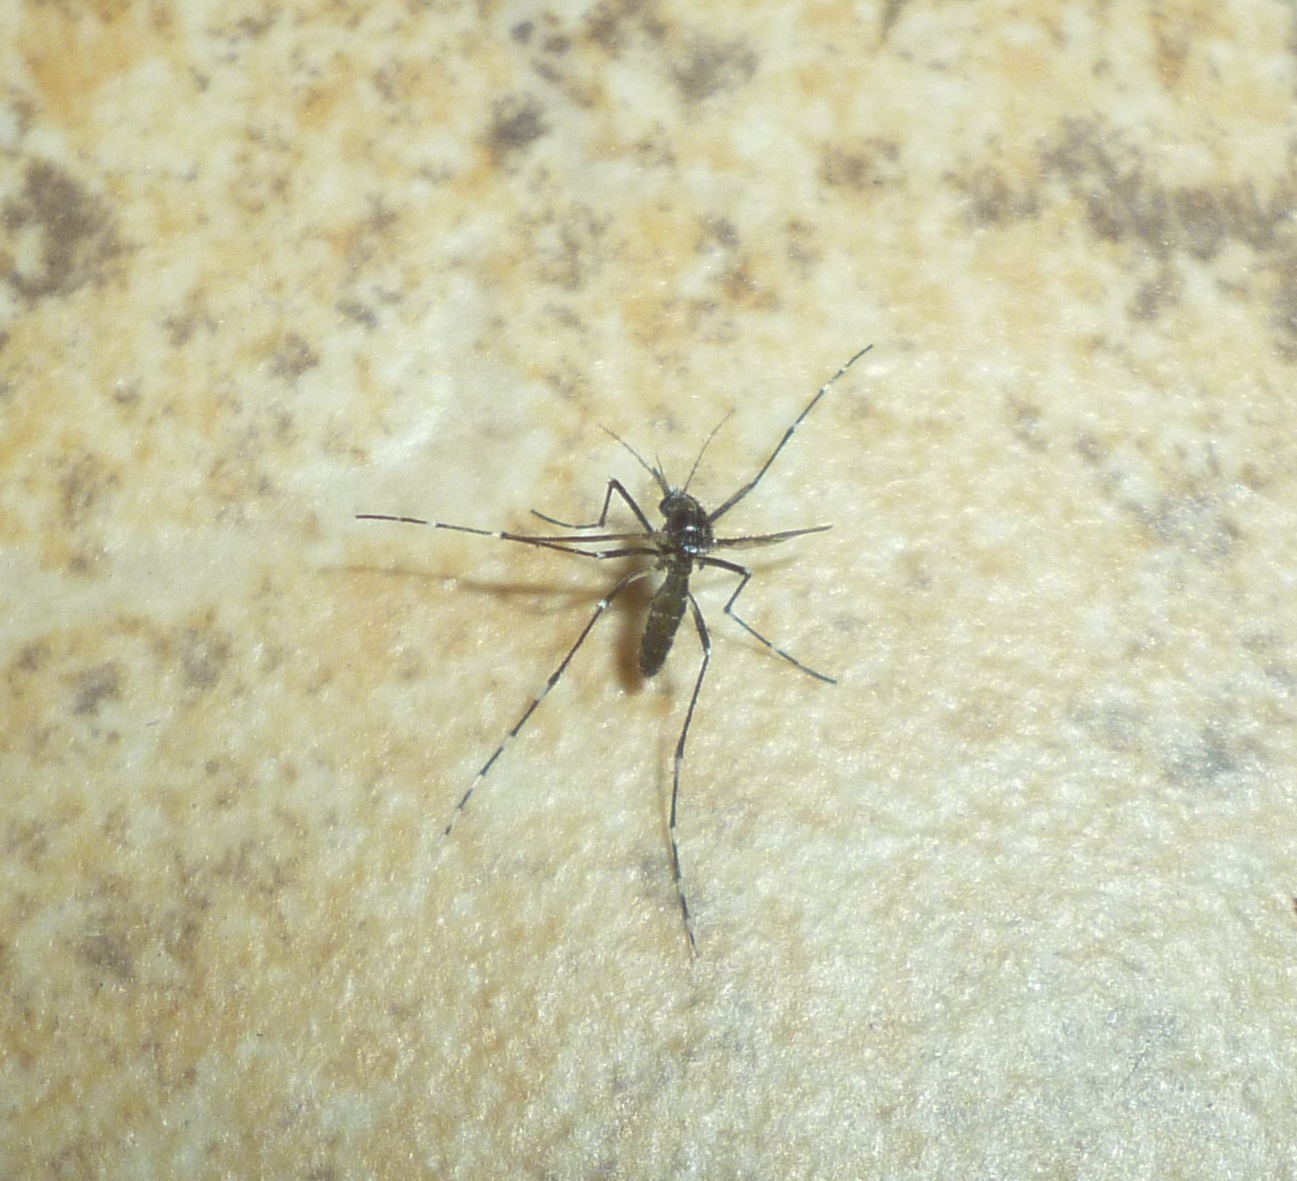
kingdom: Animalia
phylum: Arthropoda
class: Insecta
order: Diptera
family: Culicidae
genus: Aedes
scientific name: Aedes albopictus
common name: Tiger mosquito
